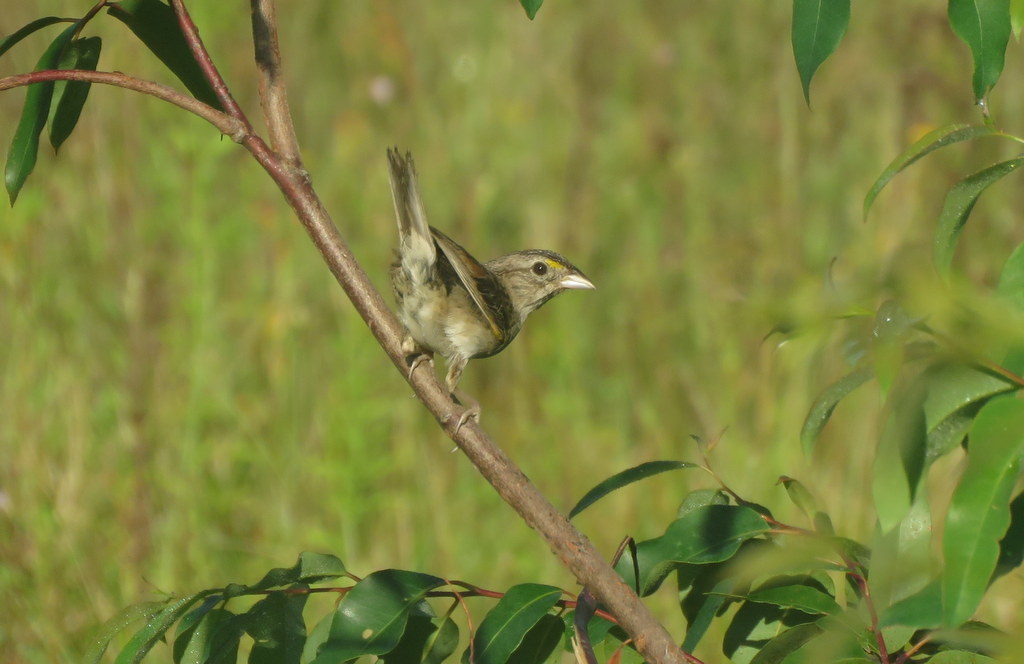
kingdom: Animalia
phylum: Chordata
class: Aves
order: Passeriformes
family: Passerellidae
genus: Ammodramus
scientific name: Ammodramus humeralis
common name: Grassland sparrow
